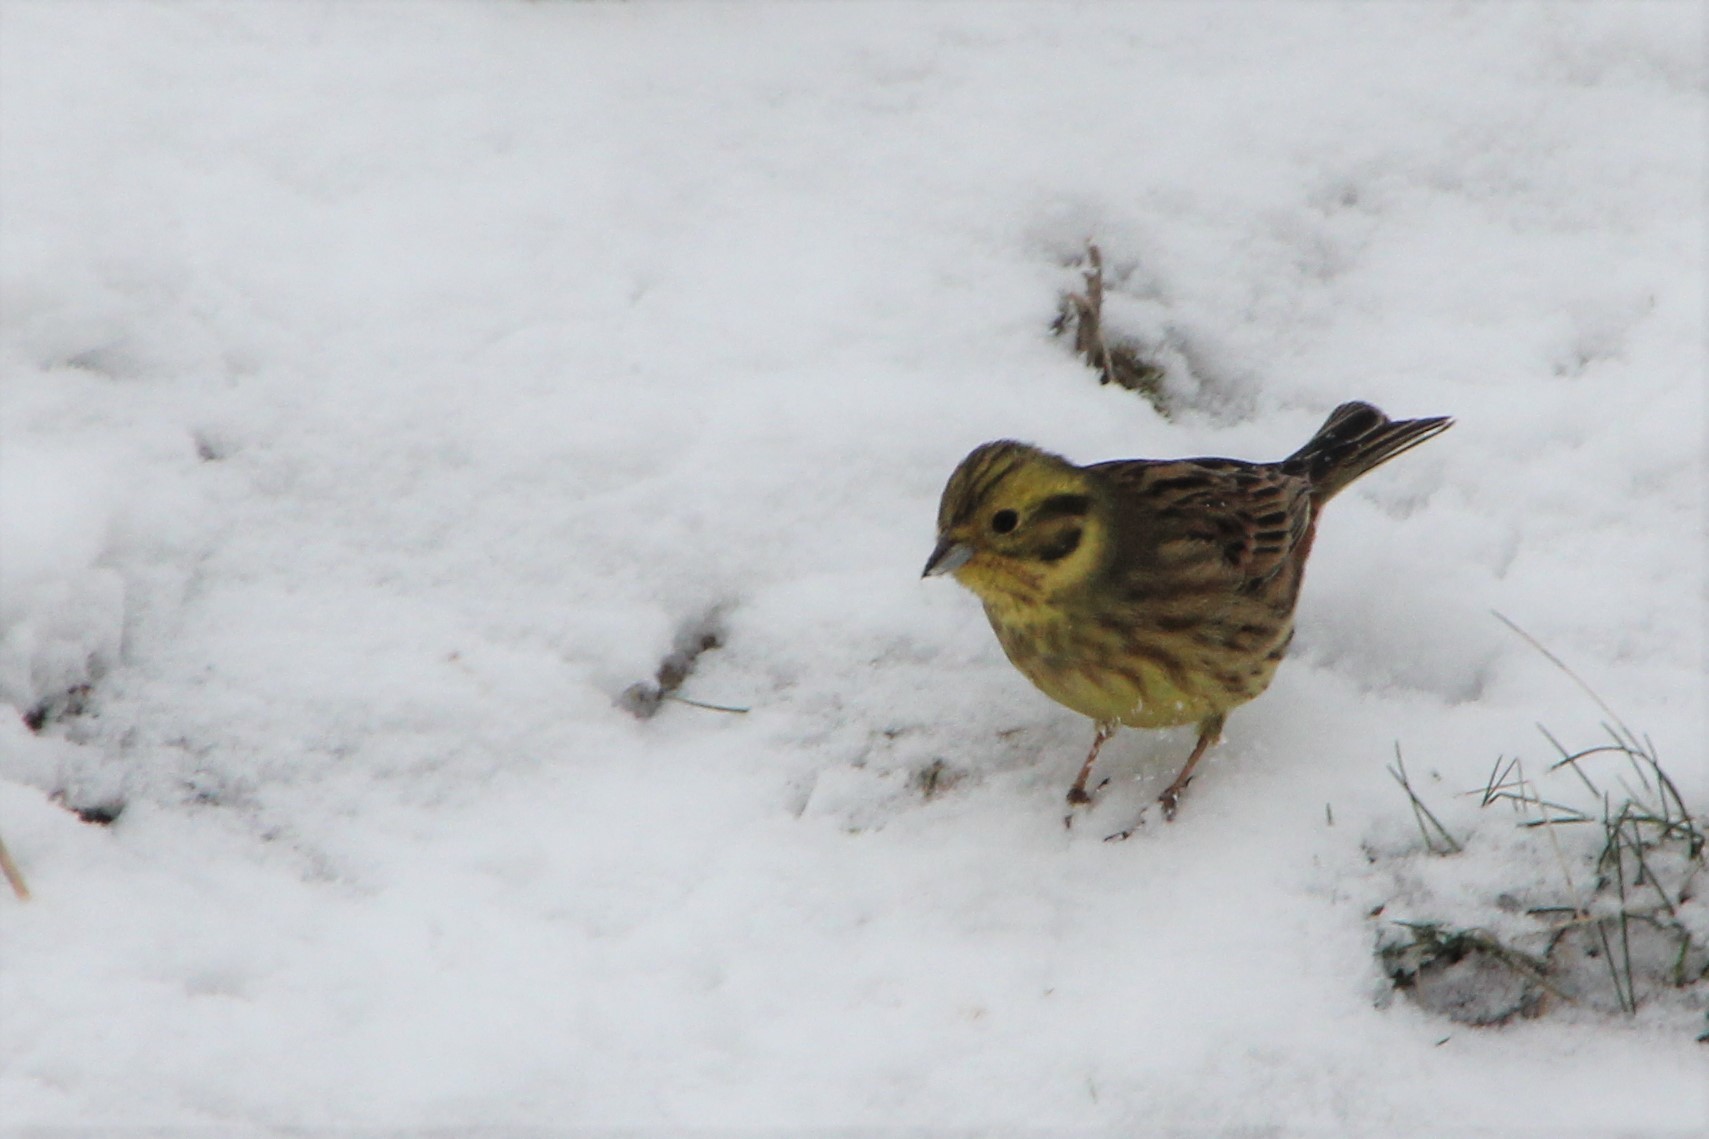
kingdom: Animalia
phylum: Chordata
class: Aves
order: Passeriformes
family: Emberizidae
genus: Emberiza
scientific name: Emberiza citrinella
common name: Yellowhammer
